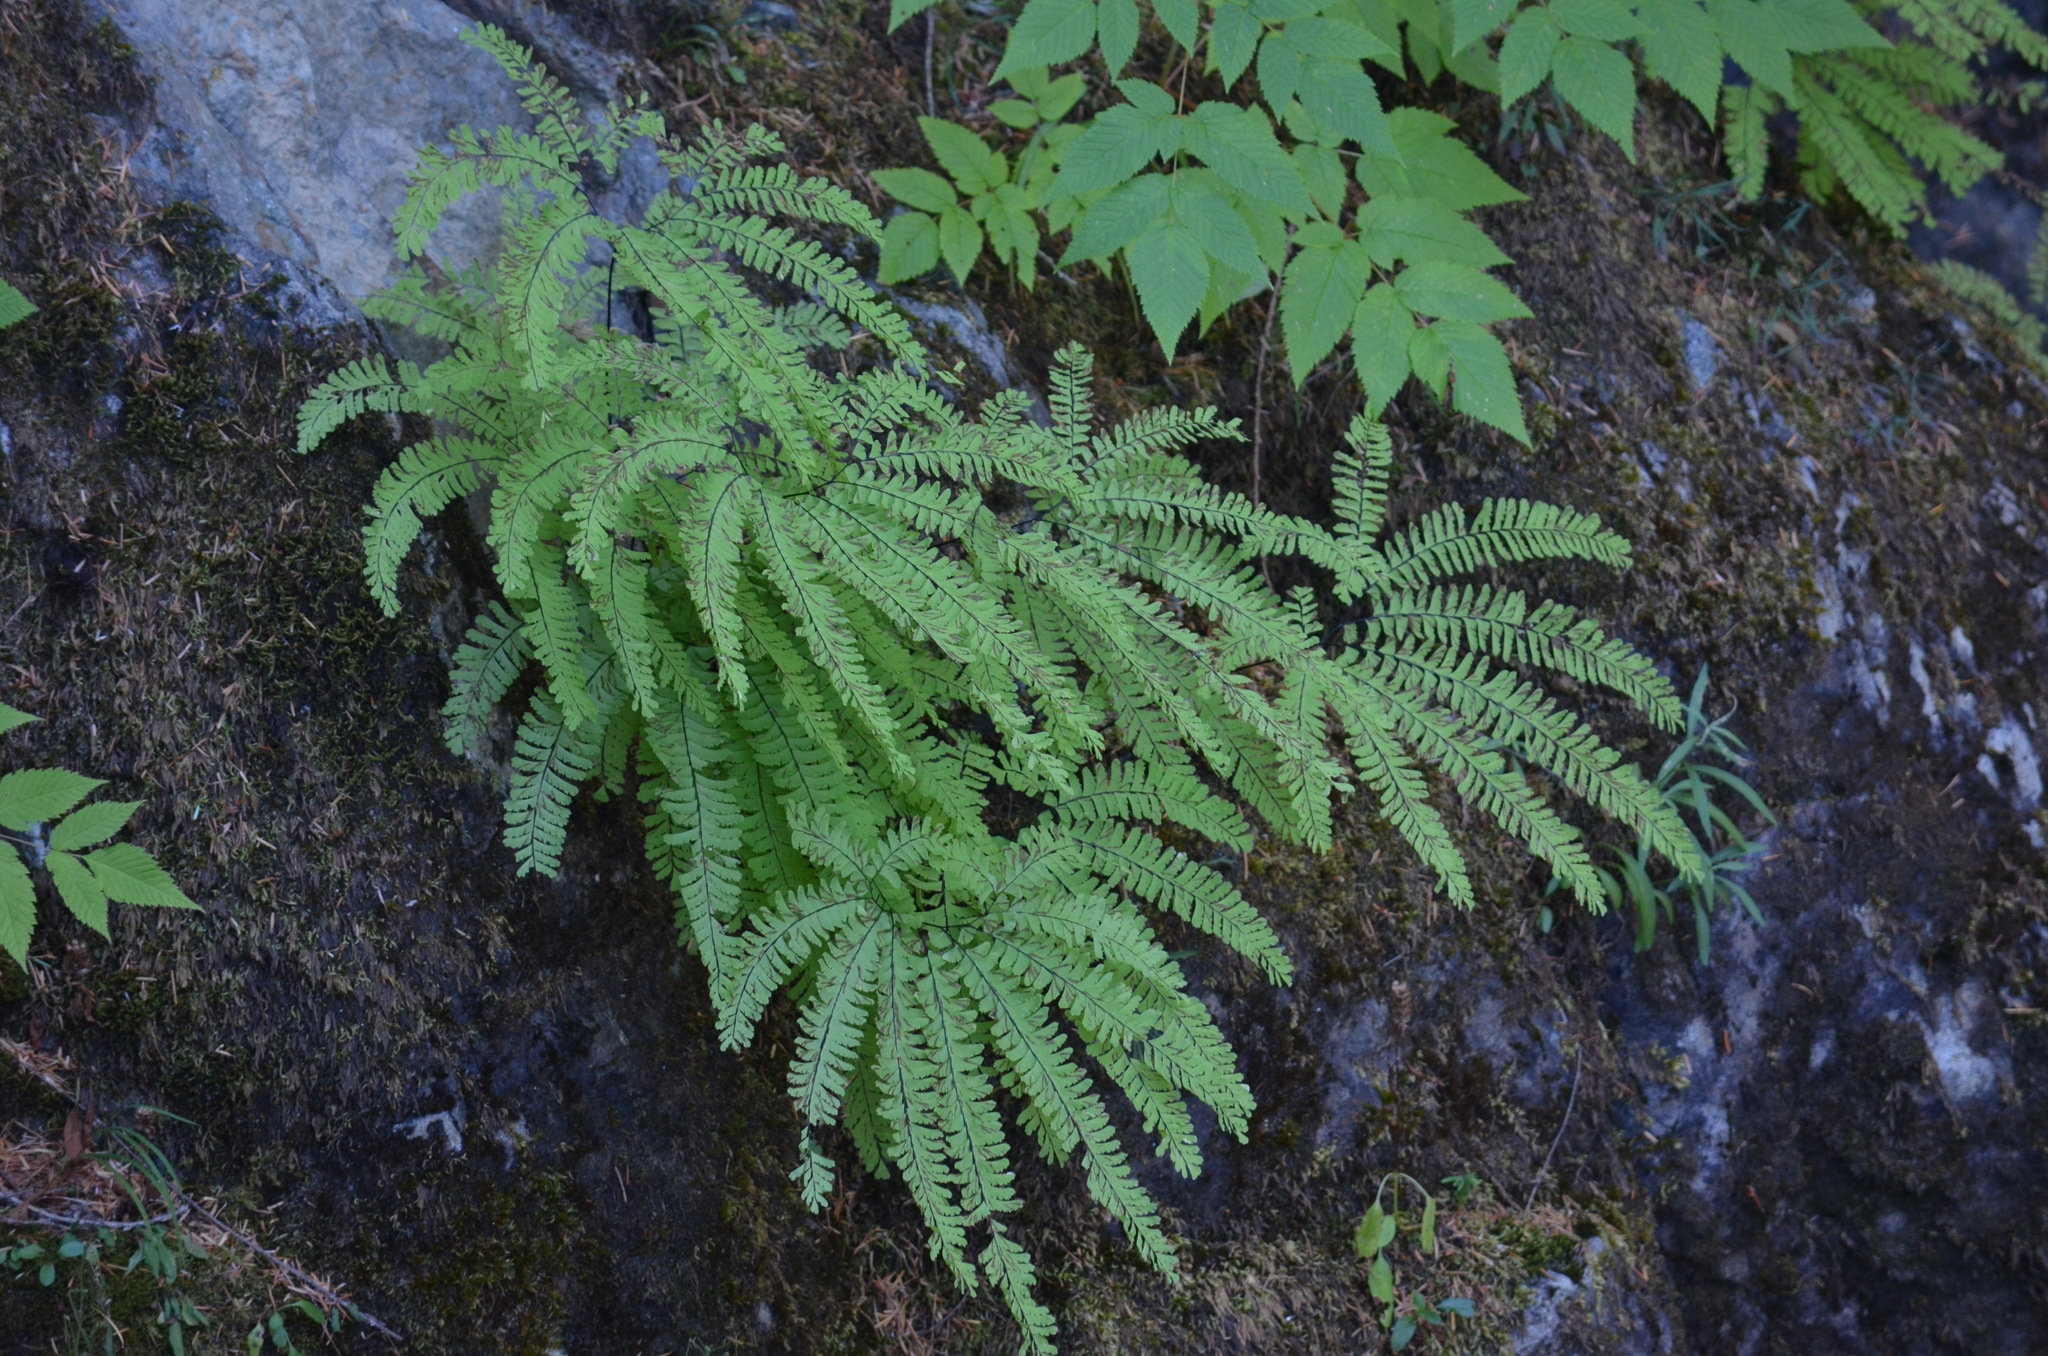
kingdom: Plantae
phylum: Tracheophyta
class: Polypodiopsida
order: Polypodiales
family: Pteridaceae
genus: Adiantum
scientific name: Adiantum aleuticum
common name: Aleutian maidenhair fern
